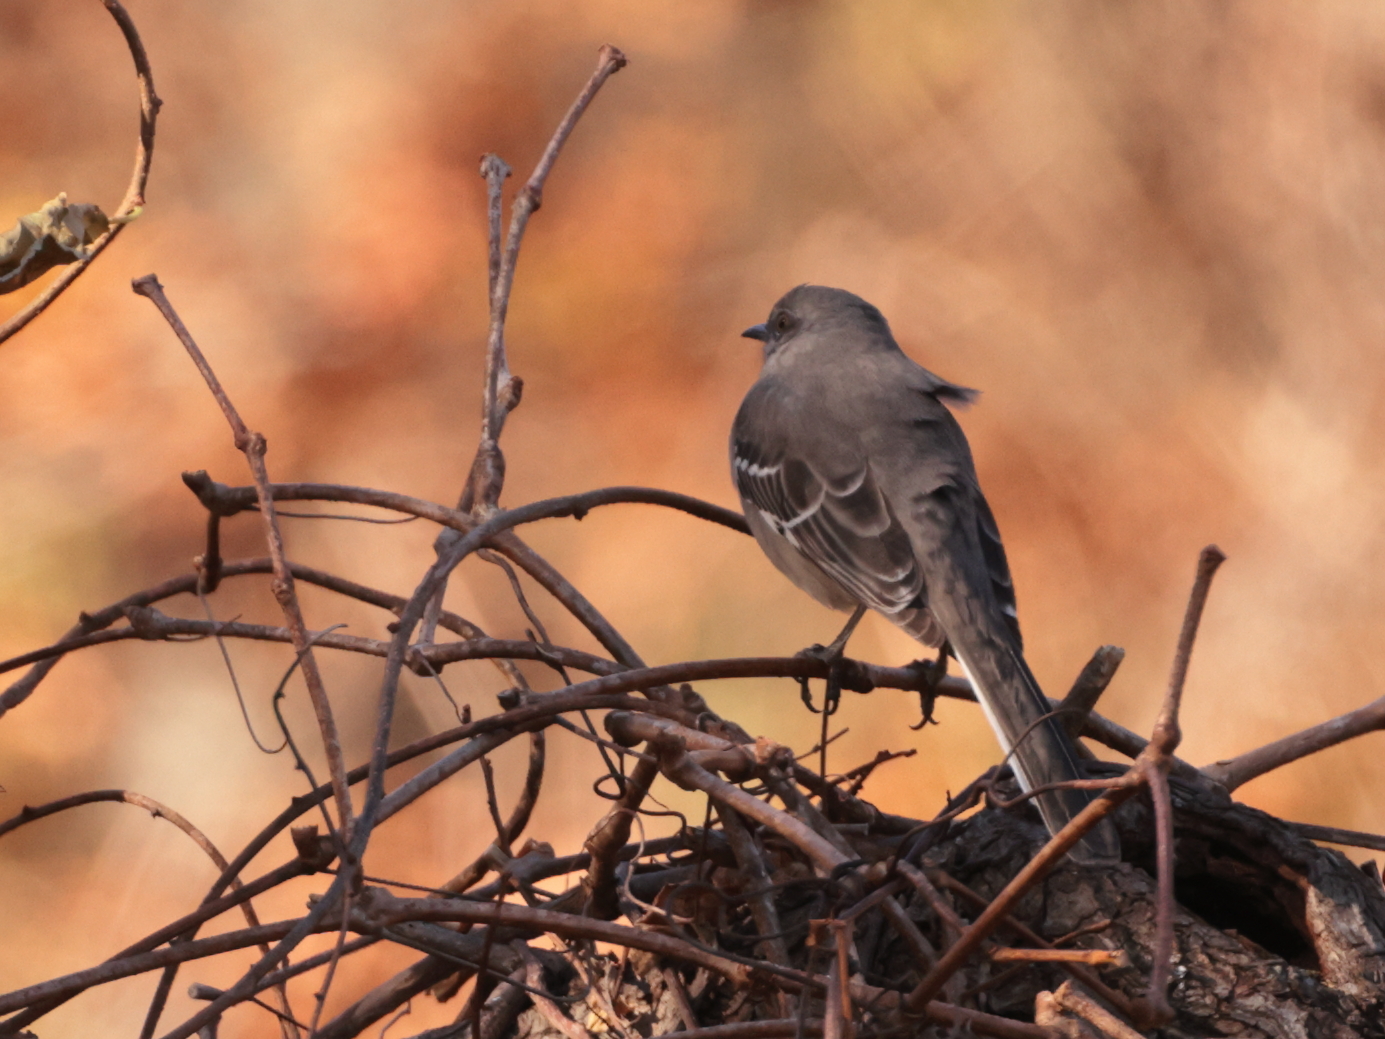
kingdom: Animalia
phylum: Chordata
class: Aves
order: Passeriformes
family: Mimidae
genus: Mimus
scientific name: Mimus polyglottos
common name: Northern mockingbird
